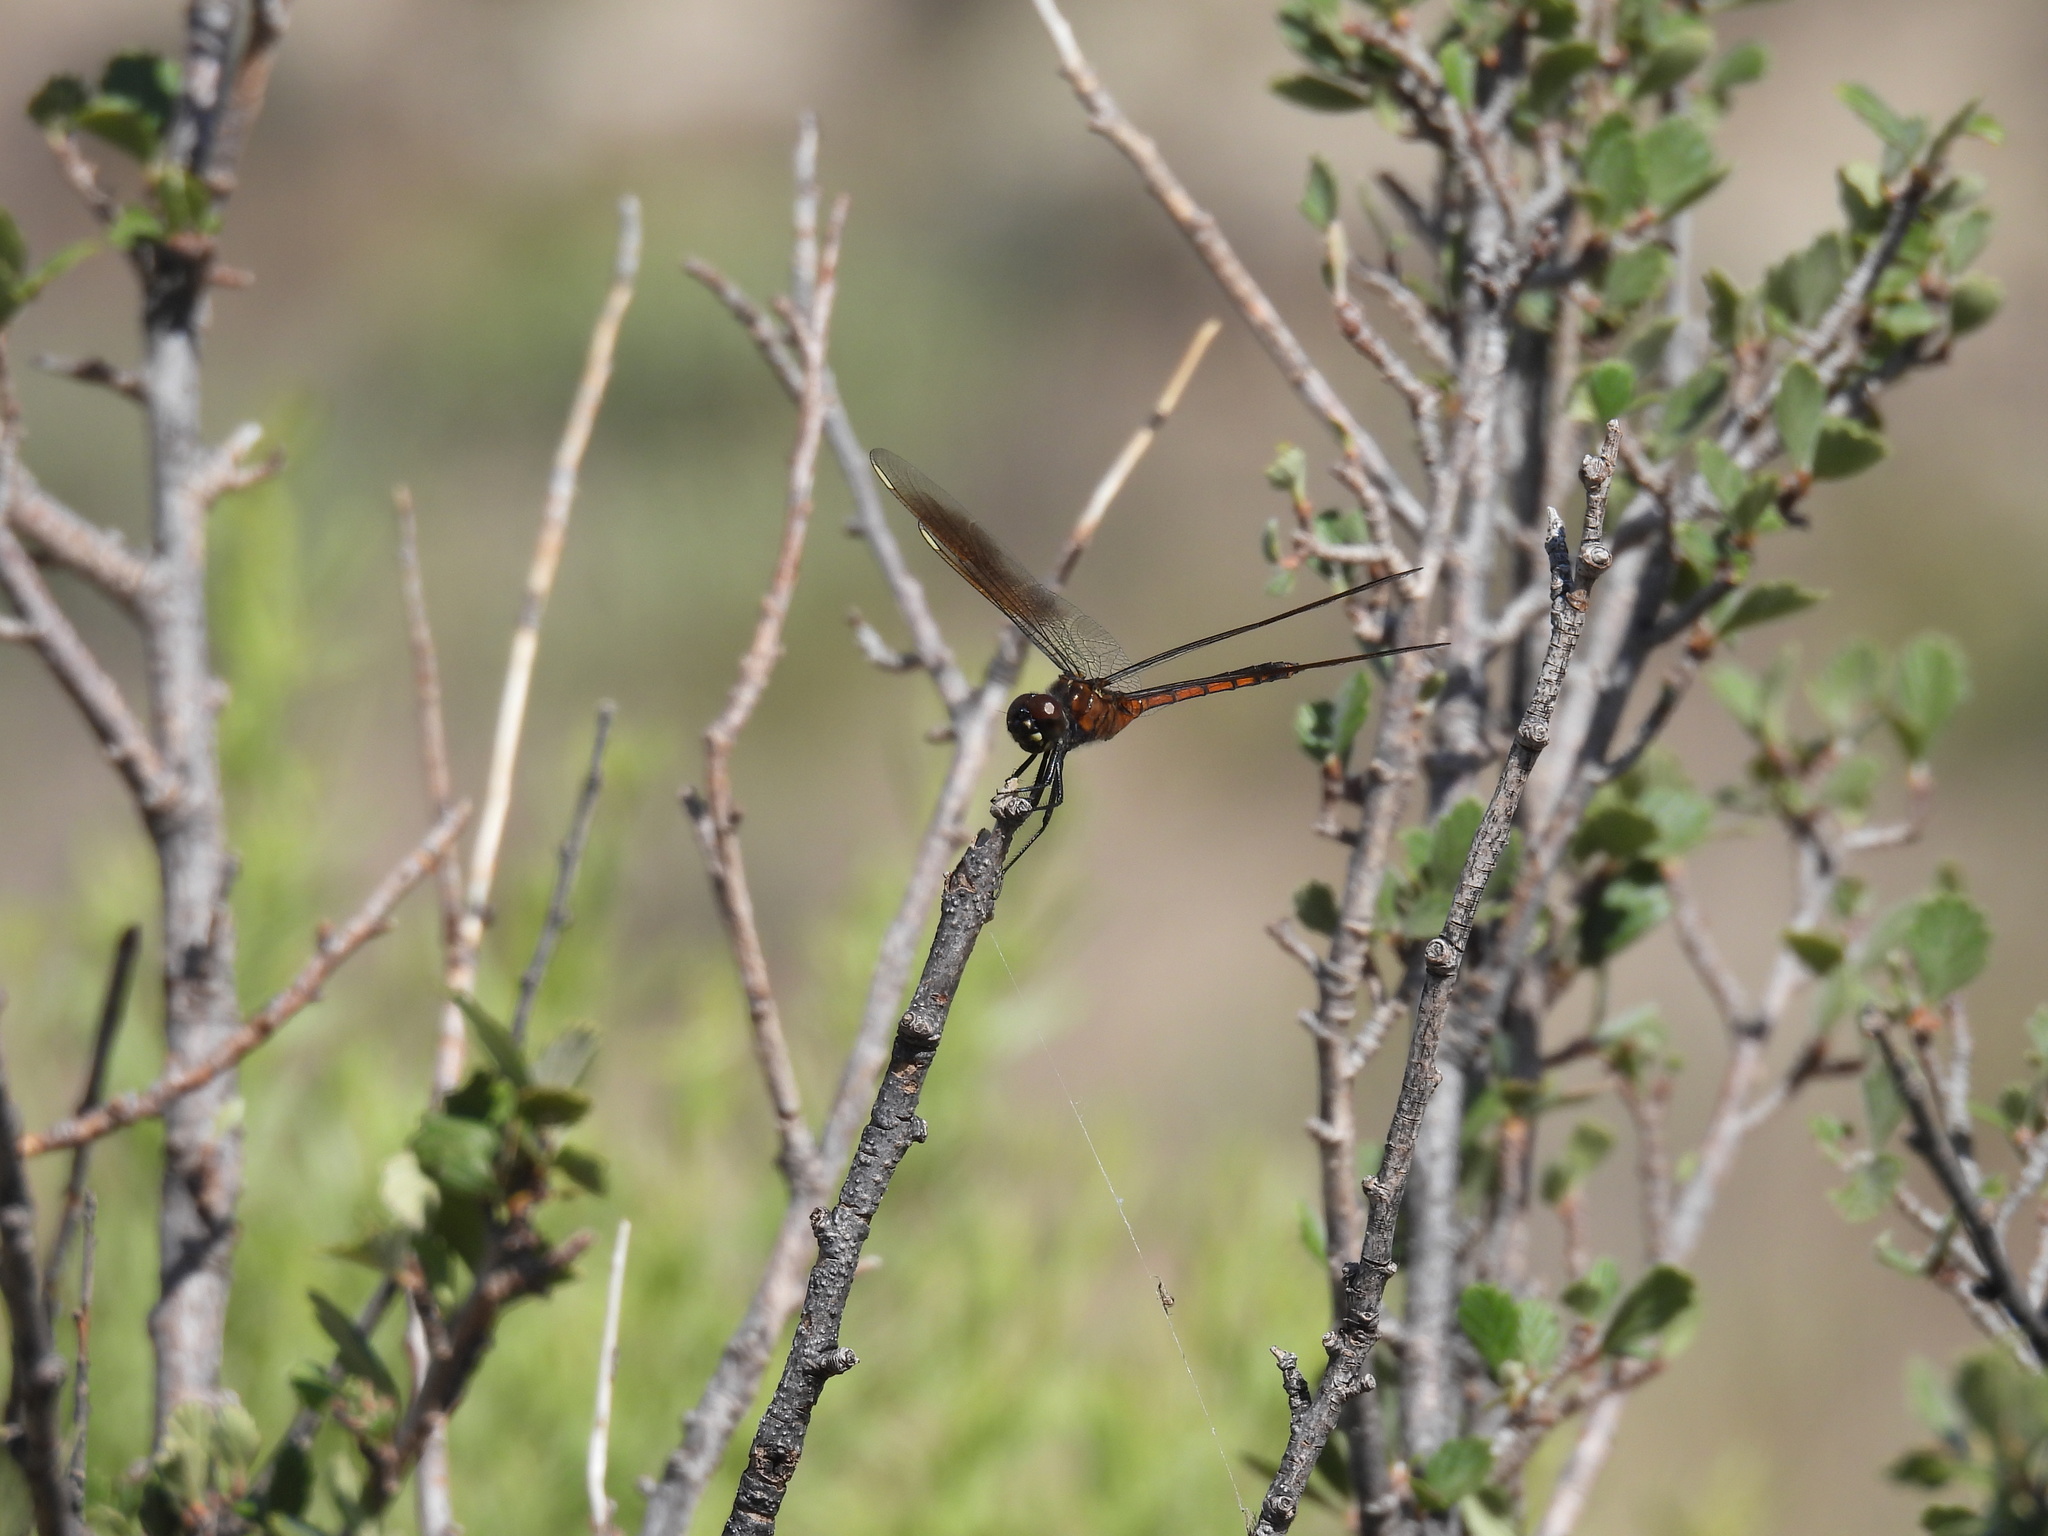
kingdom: Animalia
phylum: Arthropoda
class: Insecta
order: Odonata
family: Libellulidae
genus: Brachymesia
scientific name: Brachymesia gravida
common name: Four-spotted pennant
